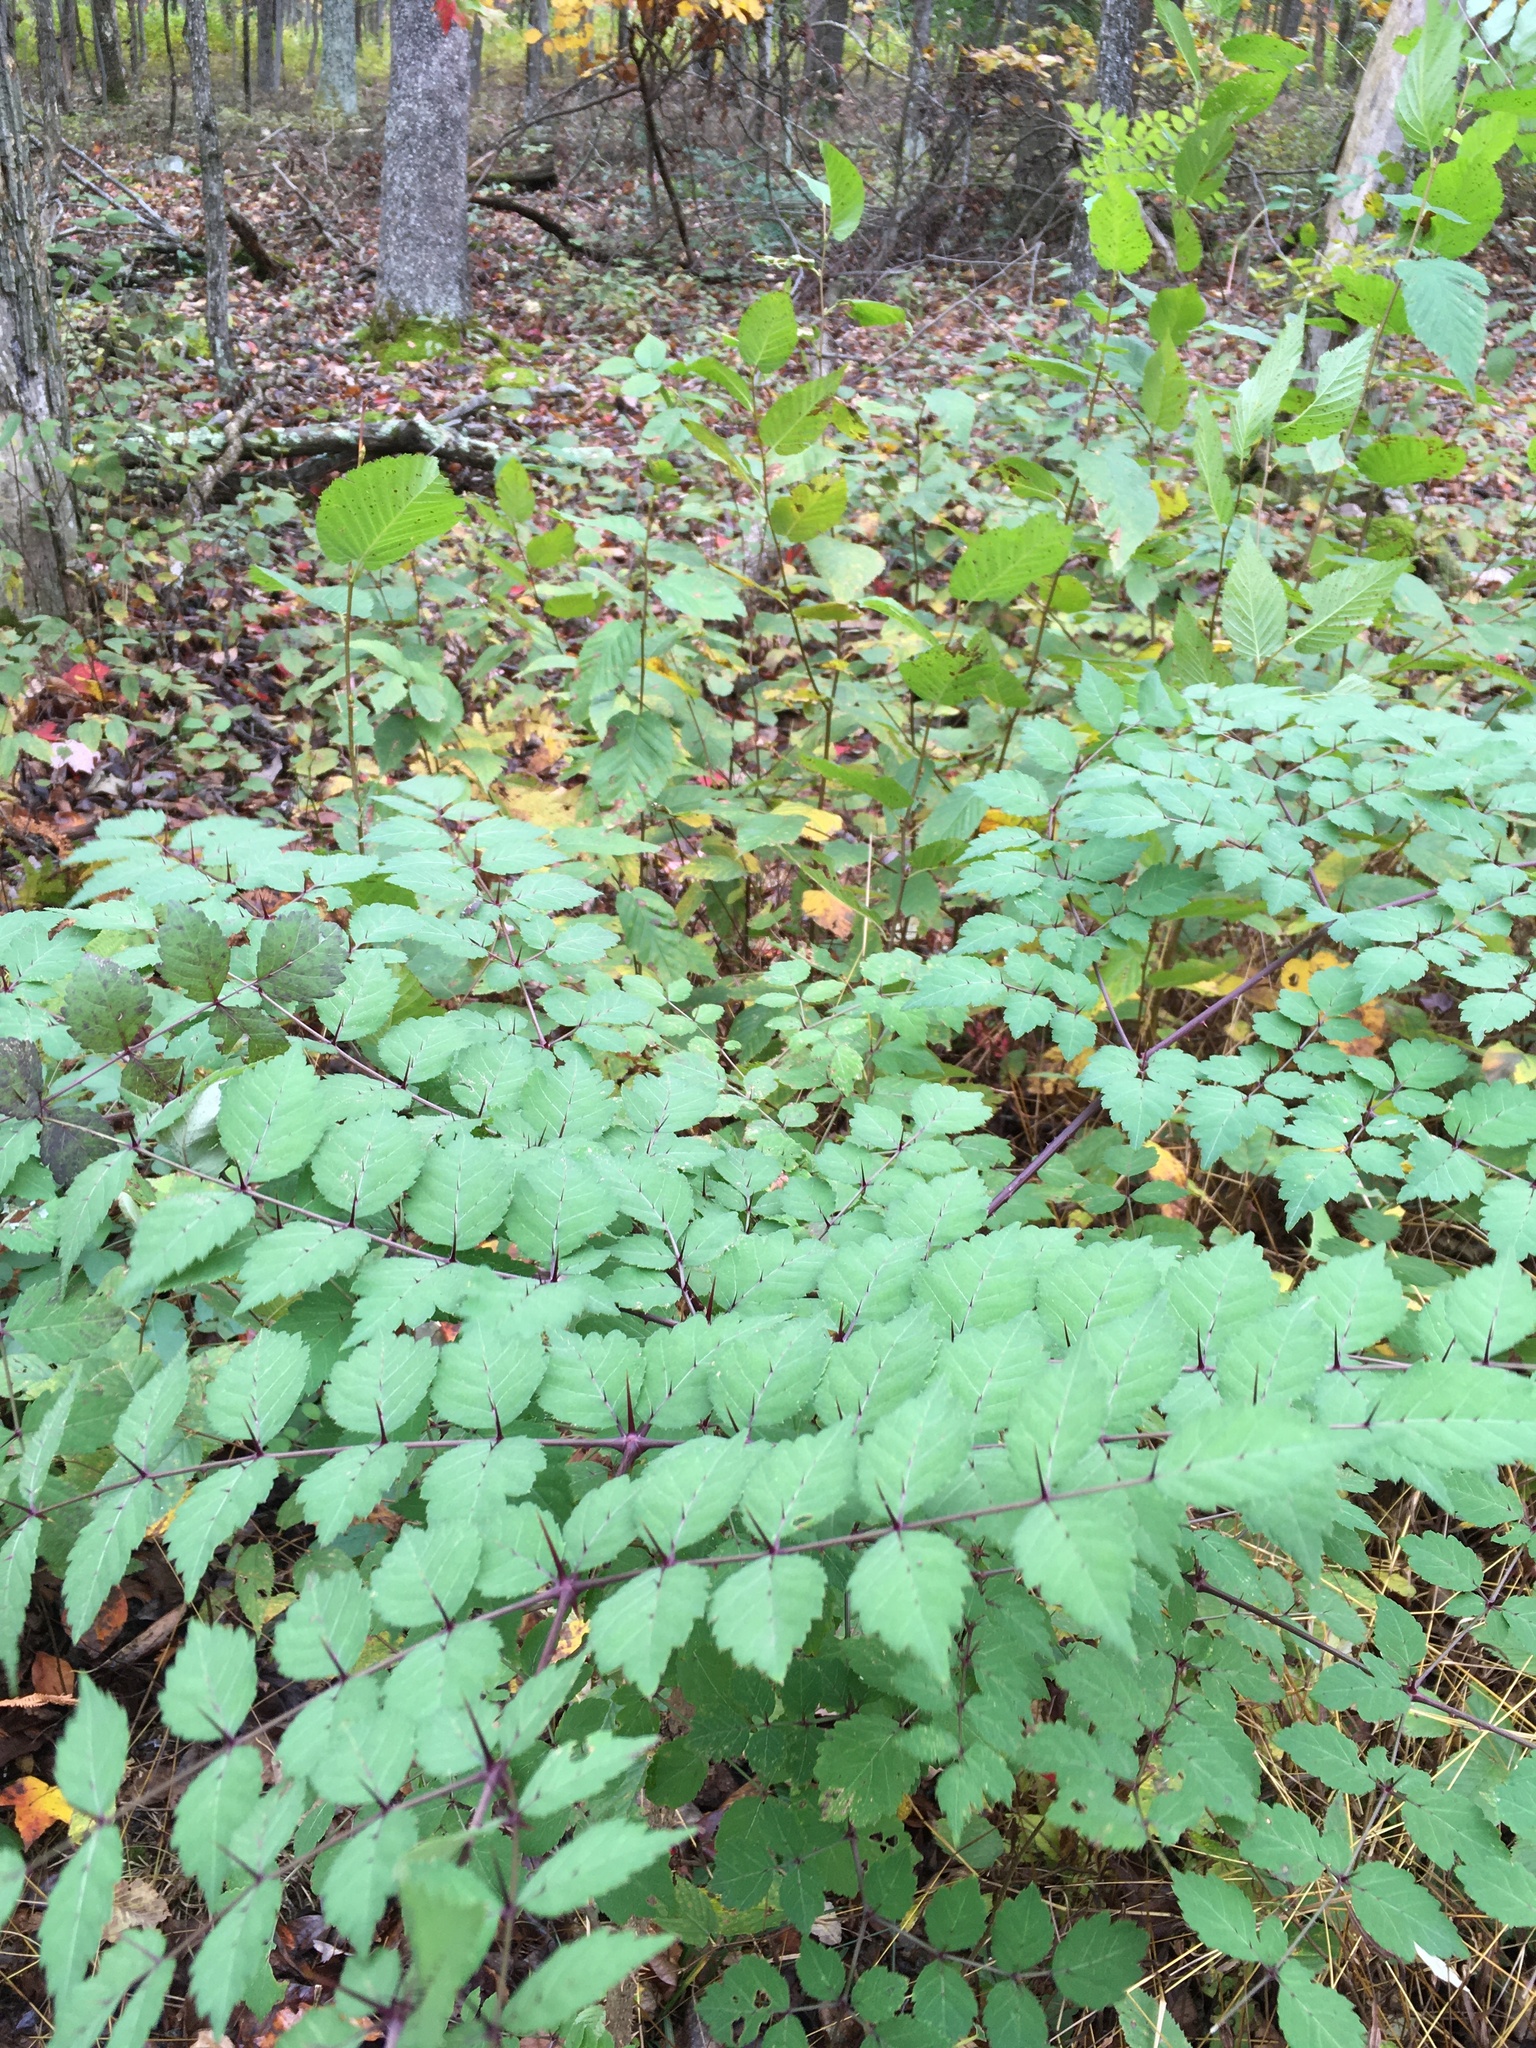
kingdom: Plantae
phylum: Tracheophyta
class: Magnoliopsida
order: Apiales
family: Araliaceae
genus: Aralia
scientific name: Aralia elata
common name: Japanese angelica-tree
